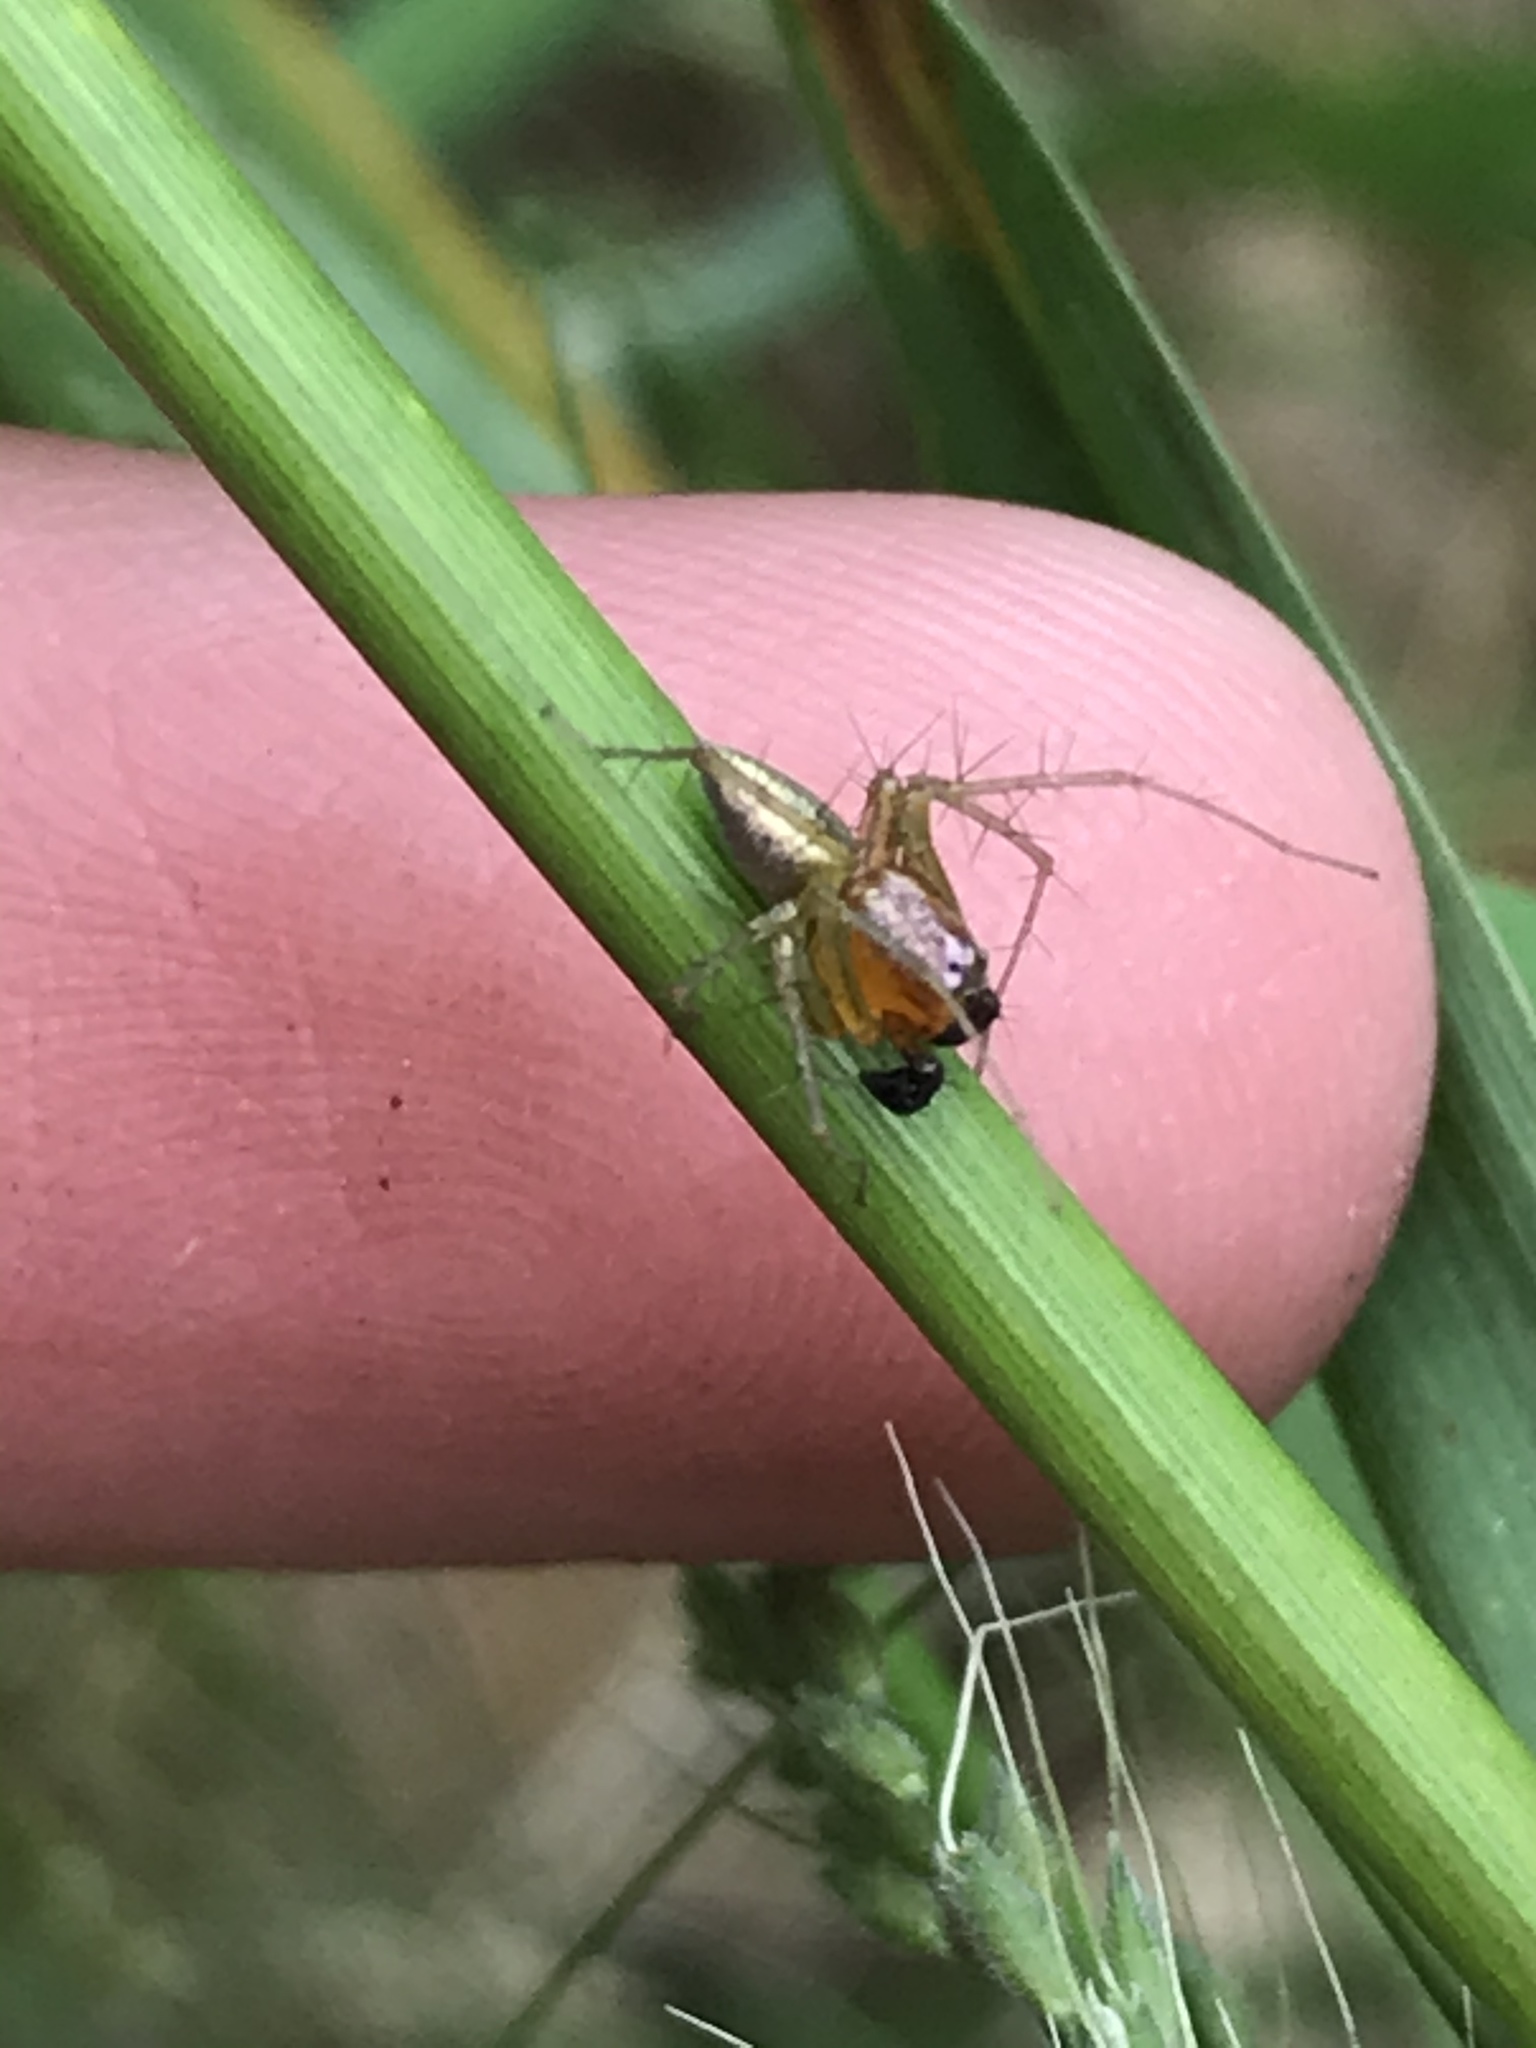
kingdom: Animalia
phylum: Arthropoda
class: Arachnida
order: Araneae
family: Oxyopidae
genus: Oxyopes
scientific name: Oxyopes salticus
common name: Lynx spiders
